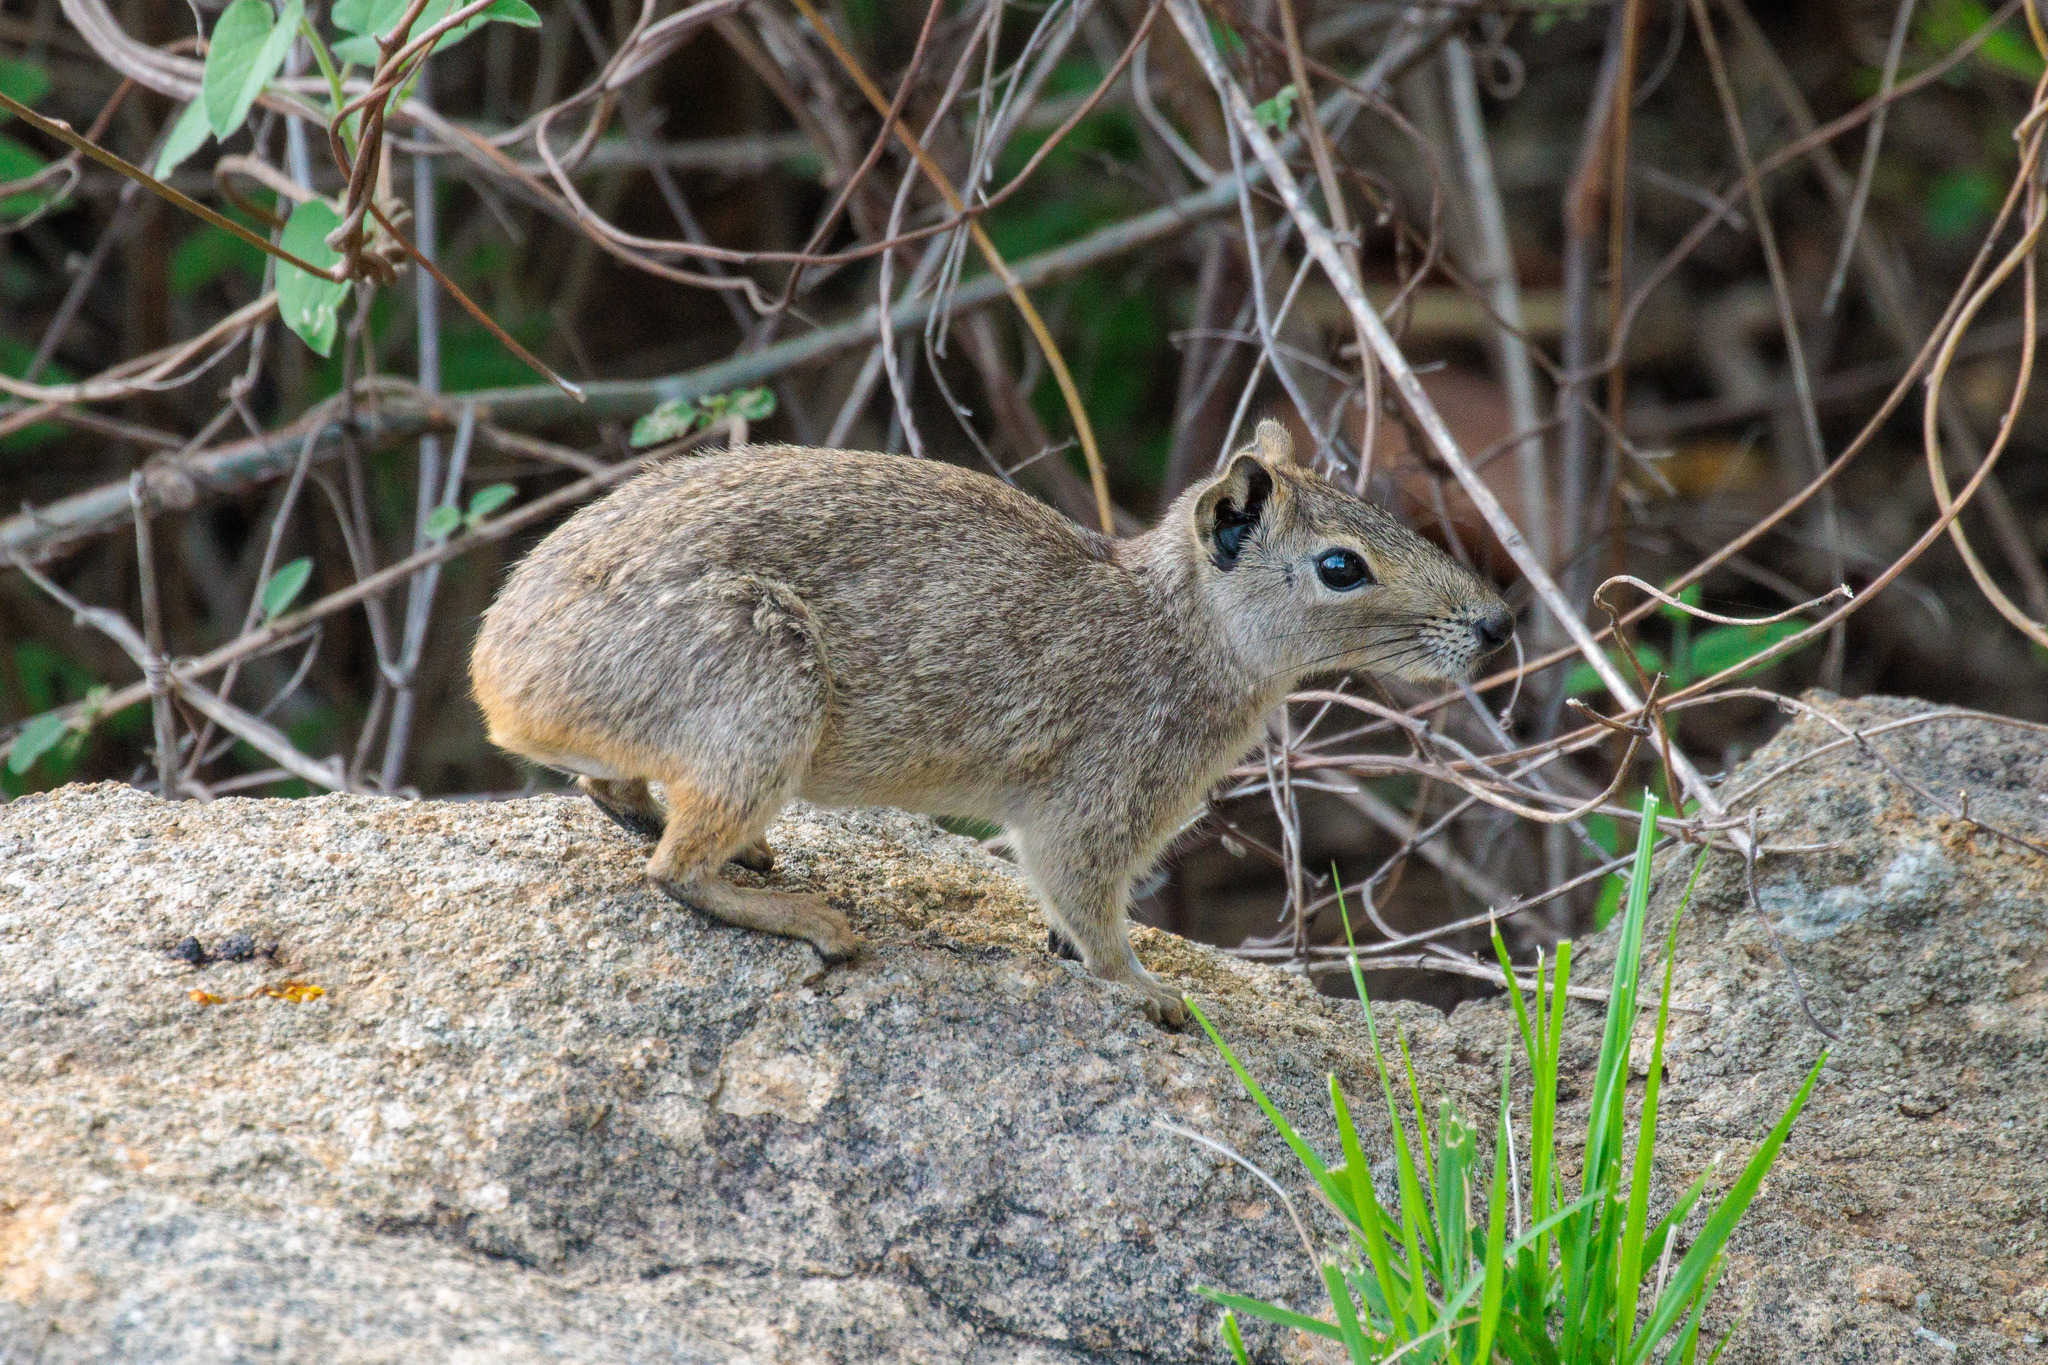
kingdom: Animalia
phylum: Chordata
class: Mammalia
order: Rodentia
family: Caviidae
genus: Kerodon
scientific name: Kerodon rupestris
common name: Rock cavy
